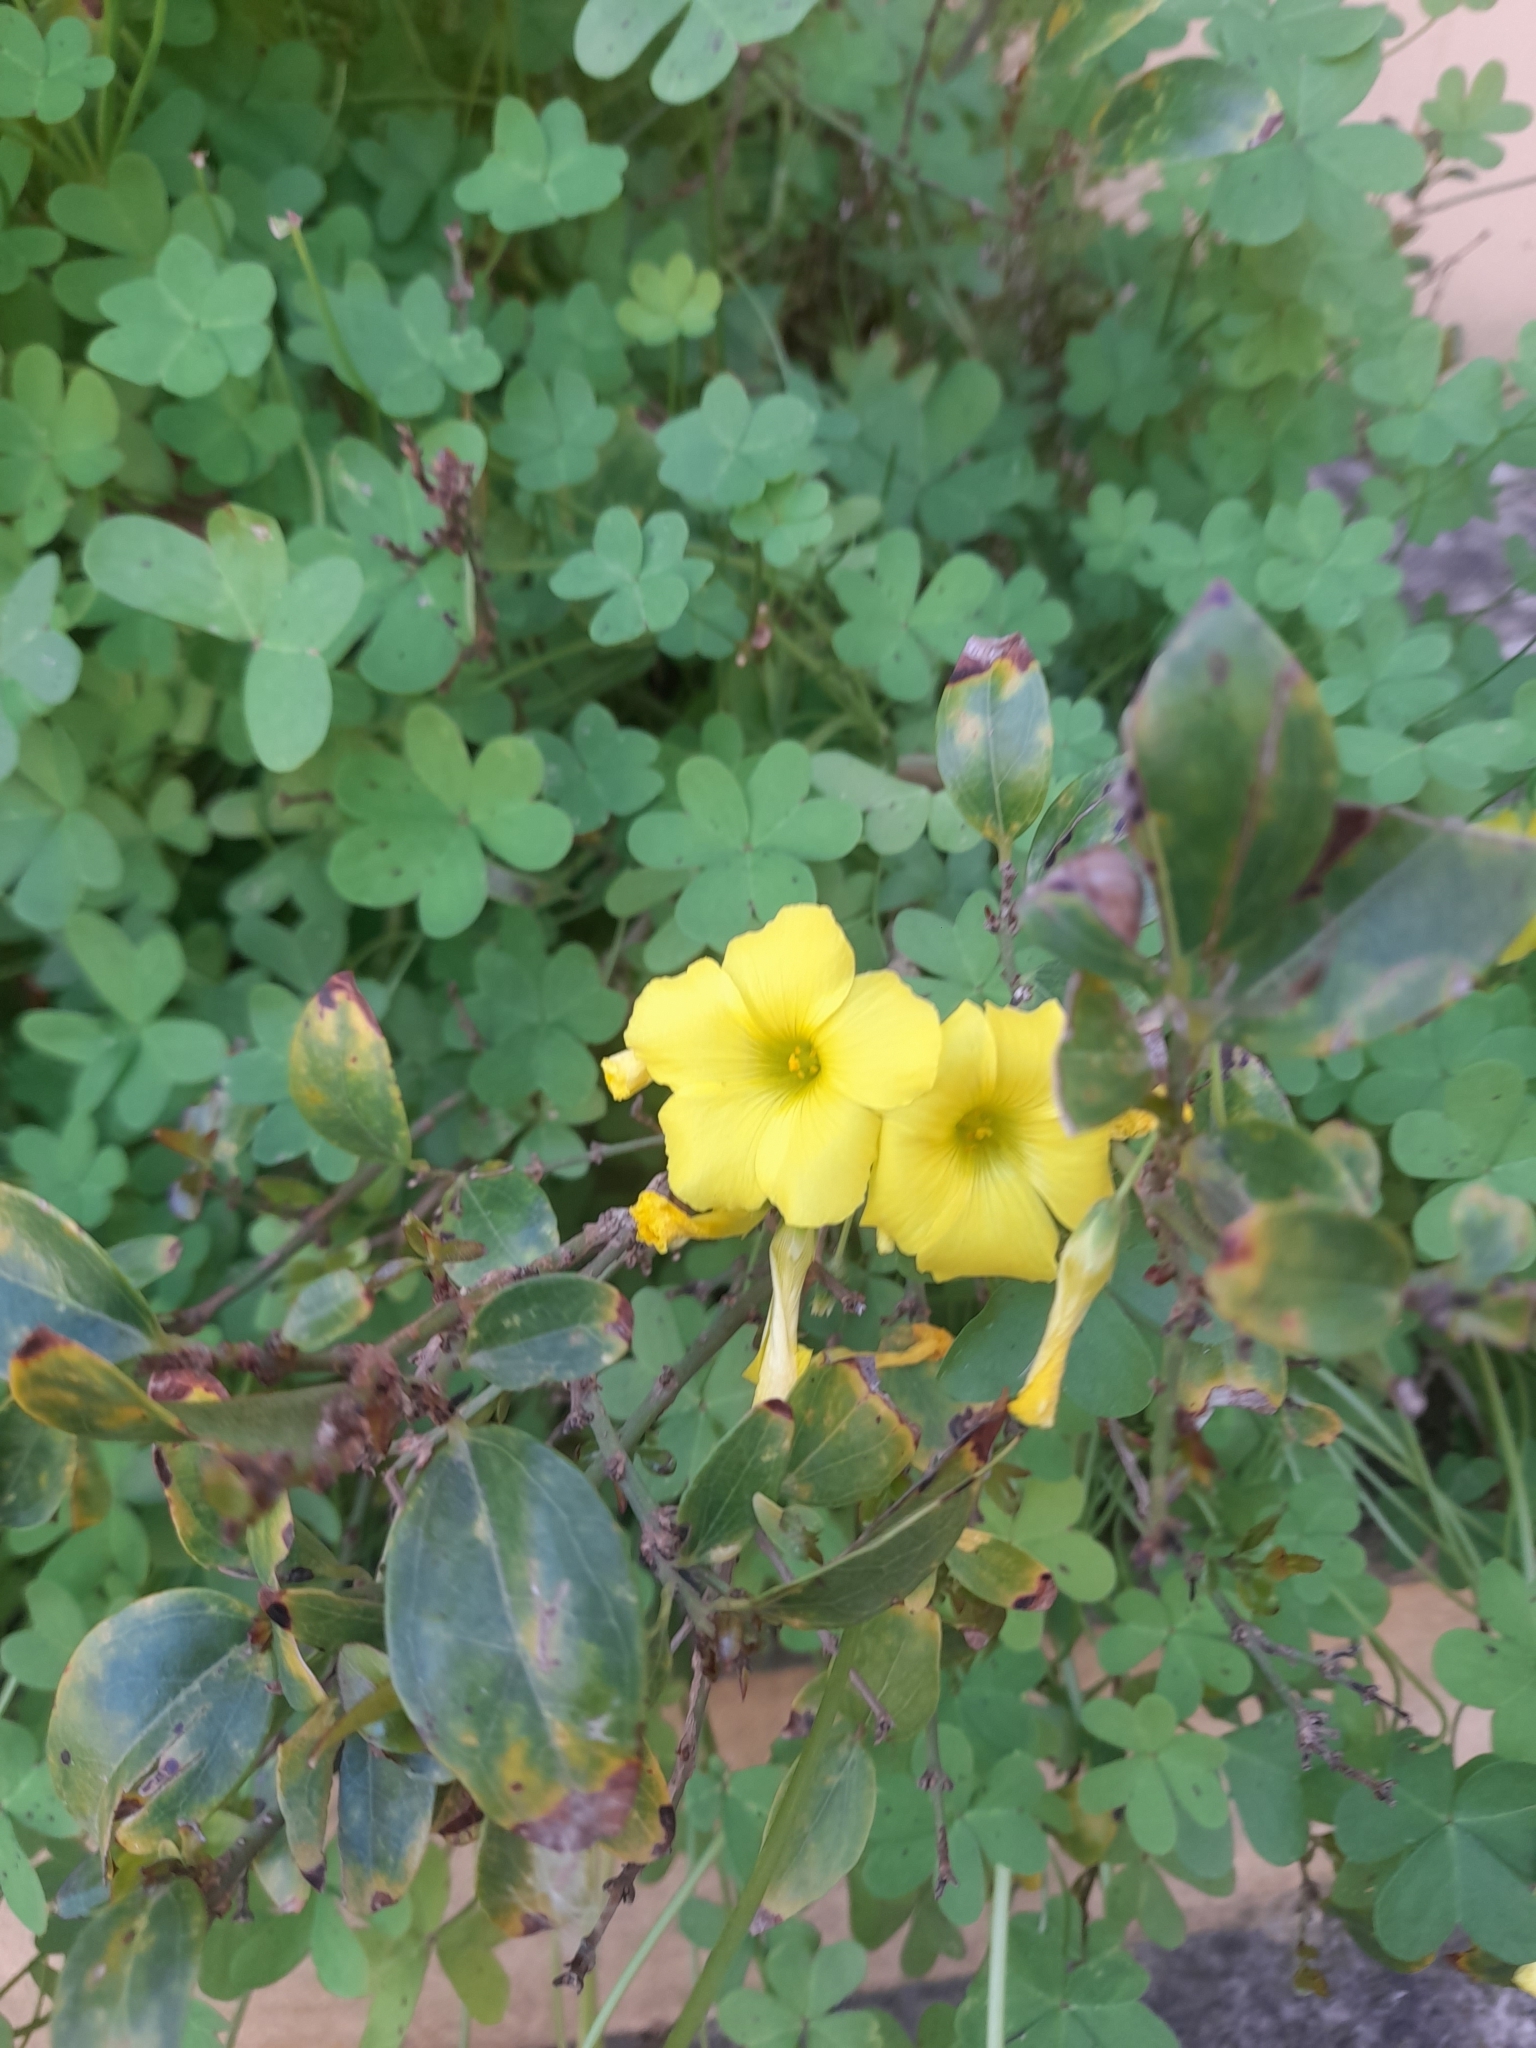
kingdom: Plantae
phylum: Tracheophyta
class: Magnoliopsida
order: Oxalidales
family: Oxalidaceae
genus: Oxalis
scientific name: Oxalis pes-caprae
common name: Bermuda-buttercup
